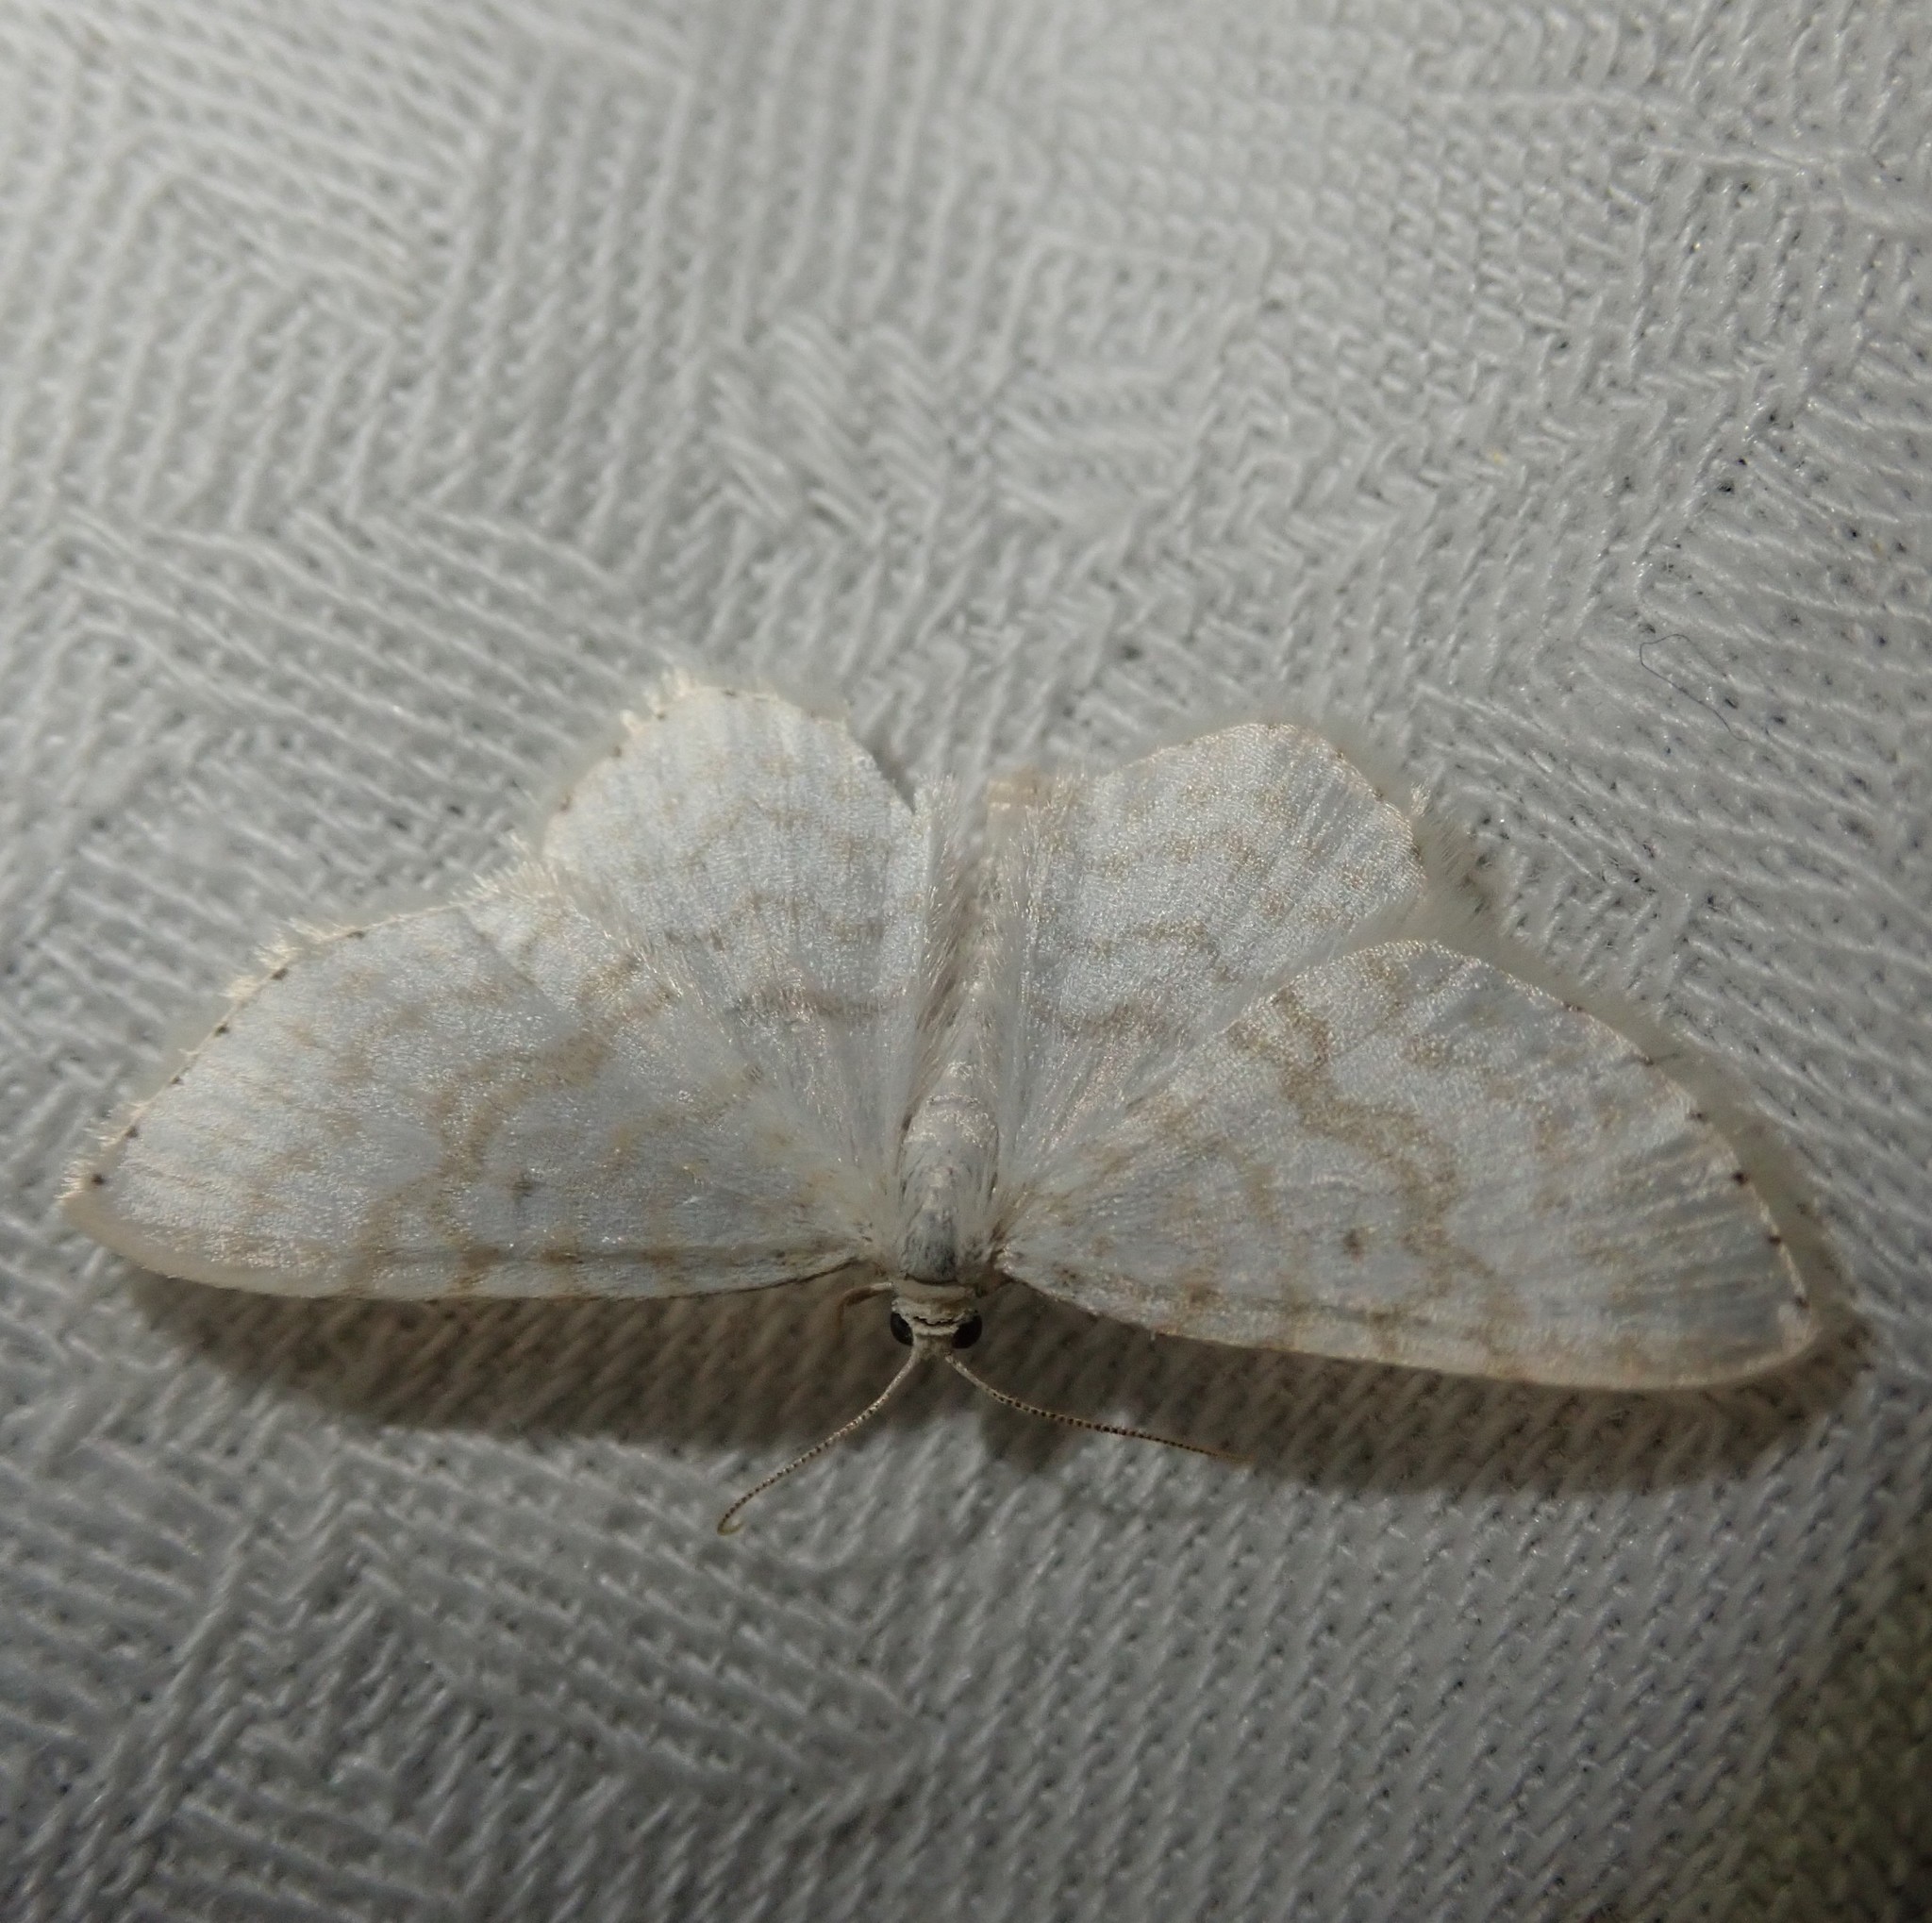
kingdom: Animalia
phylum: Arthropoda
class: Insecta
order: Lepidoptera
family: Geometridae
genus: Asthena
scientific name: Asthena albulata
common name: Small white wave
